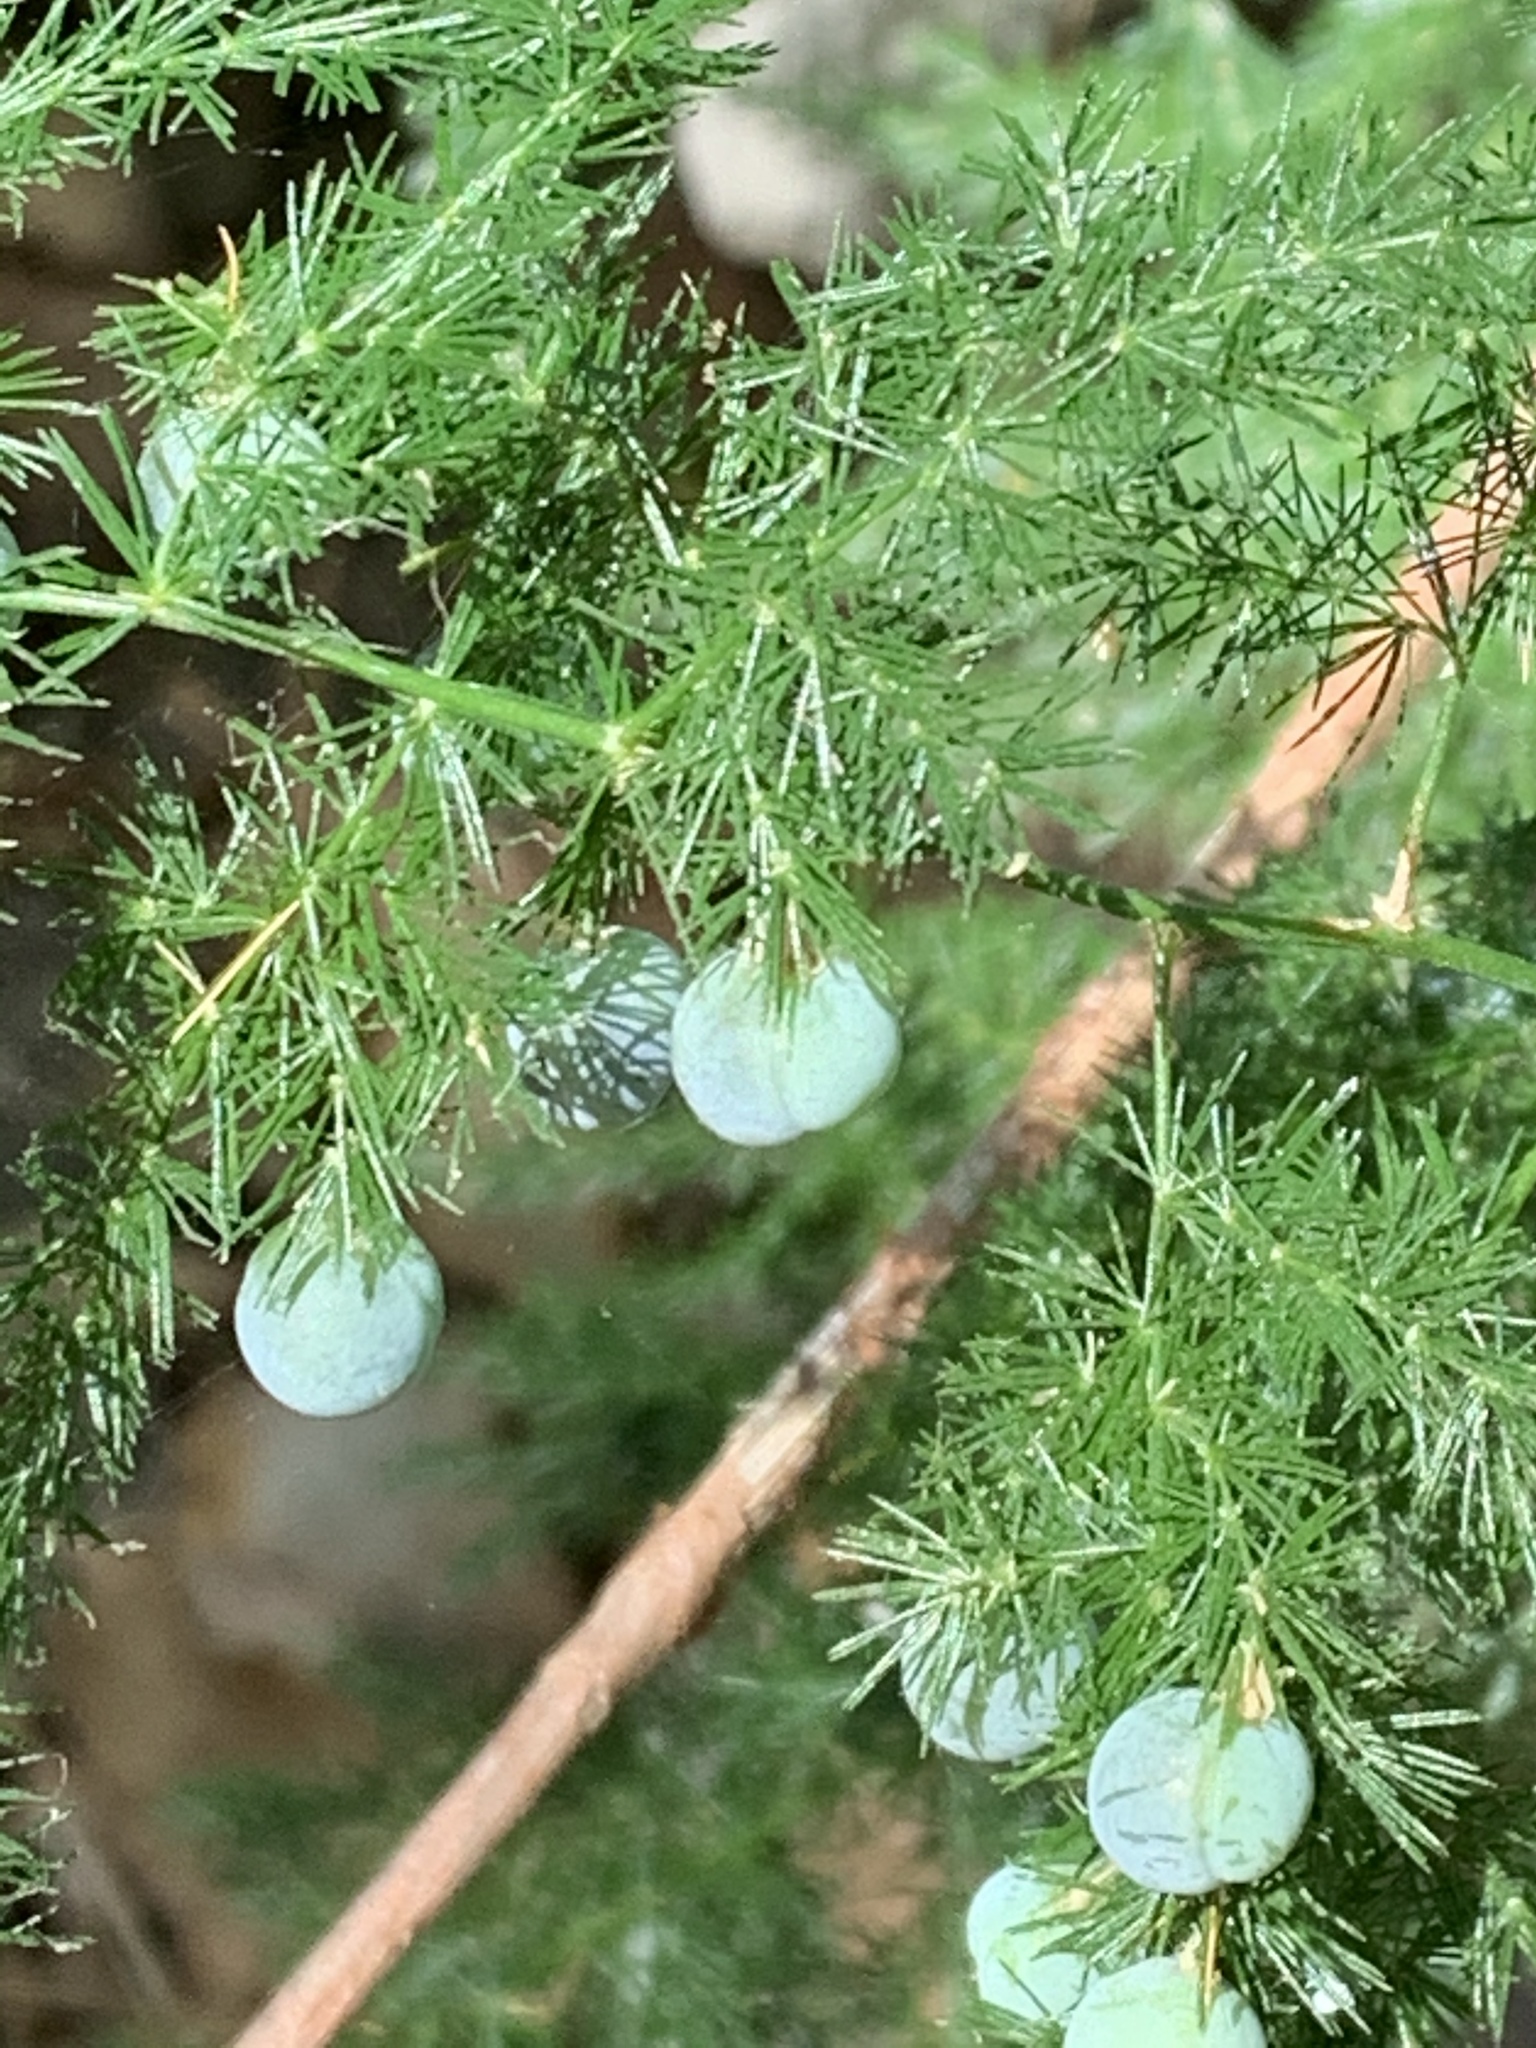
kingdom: Plantae
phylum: Tracheophyta
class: Liliopsida
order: Asparagales
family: Asparagaceae
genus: Asparagus
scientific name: Asparagus setaceus
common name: Common asparagus fern
